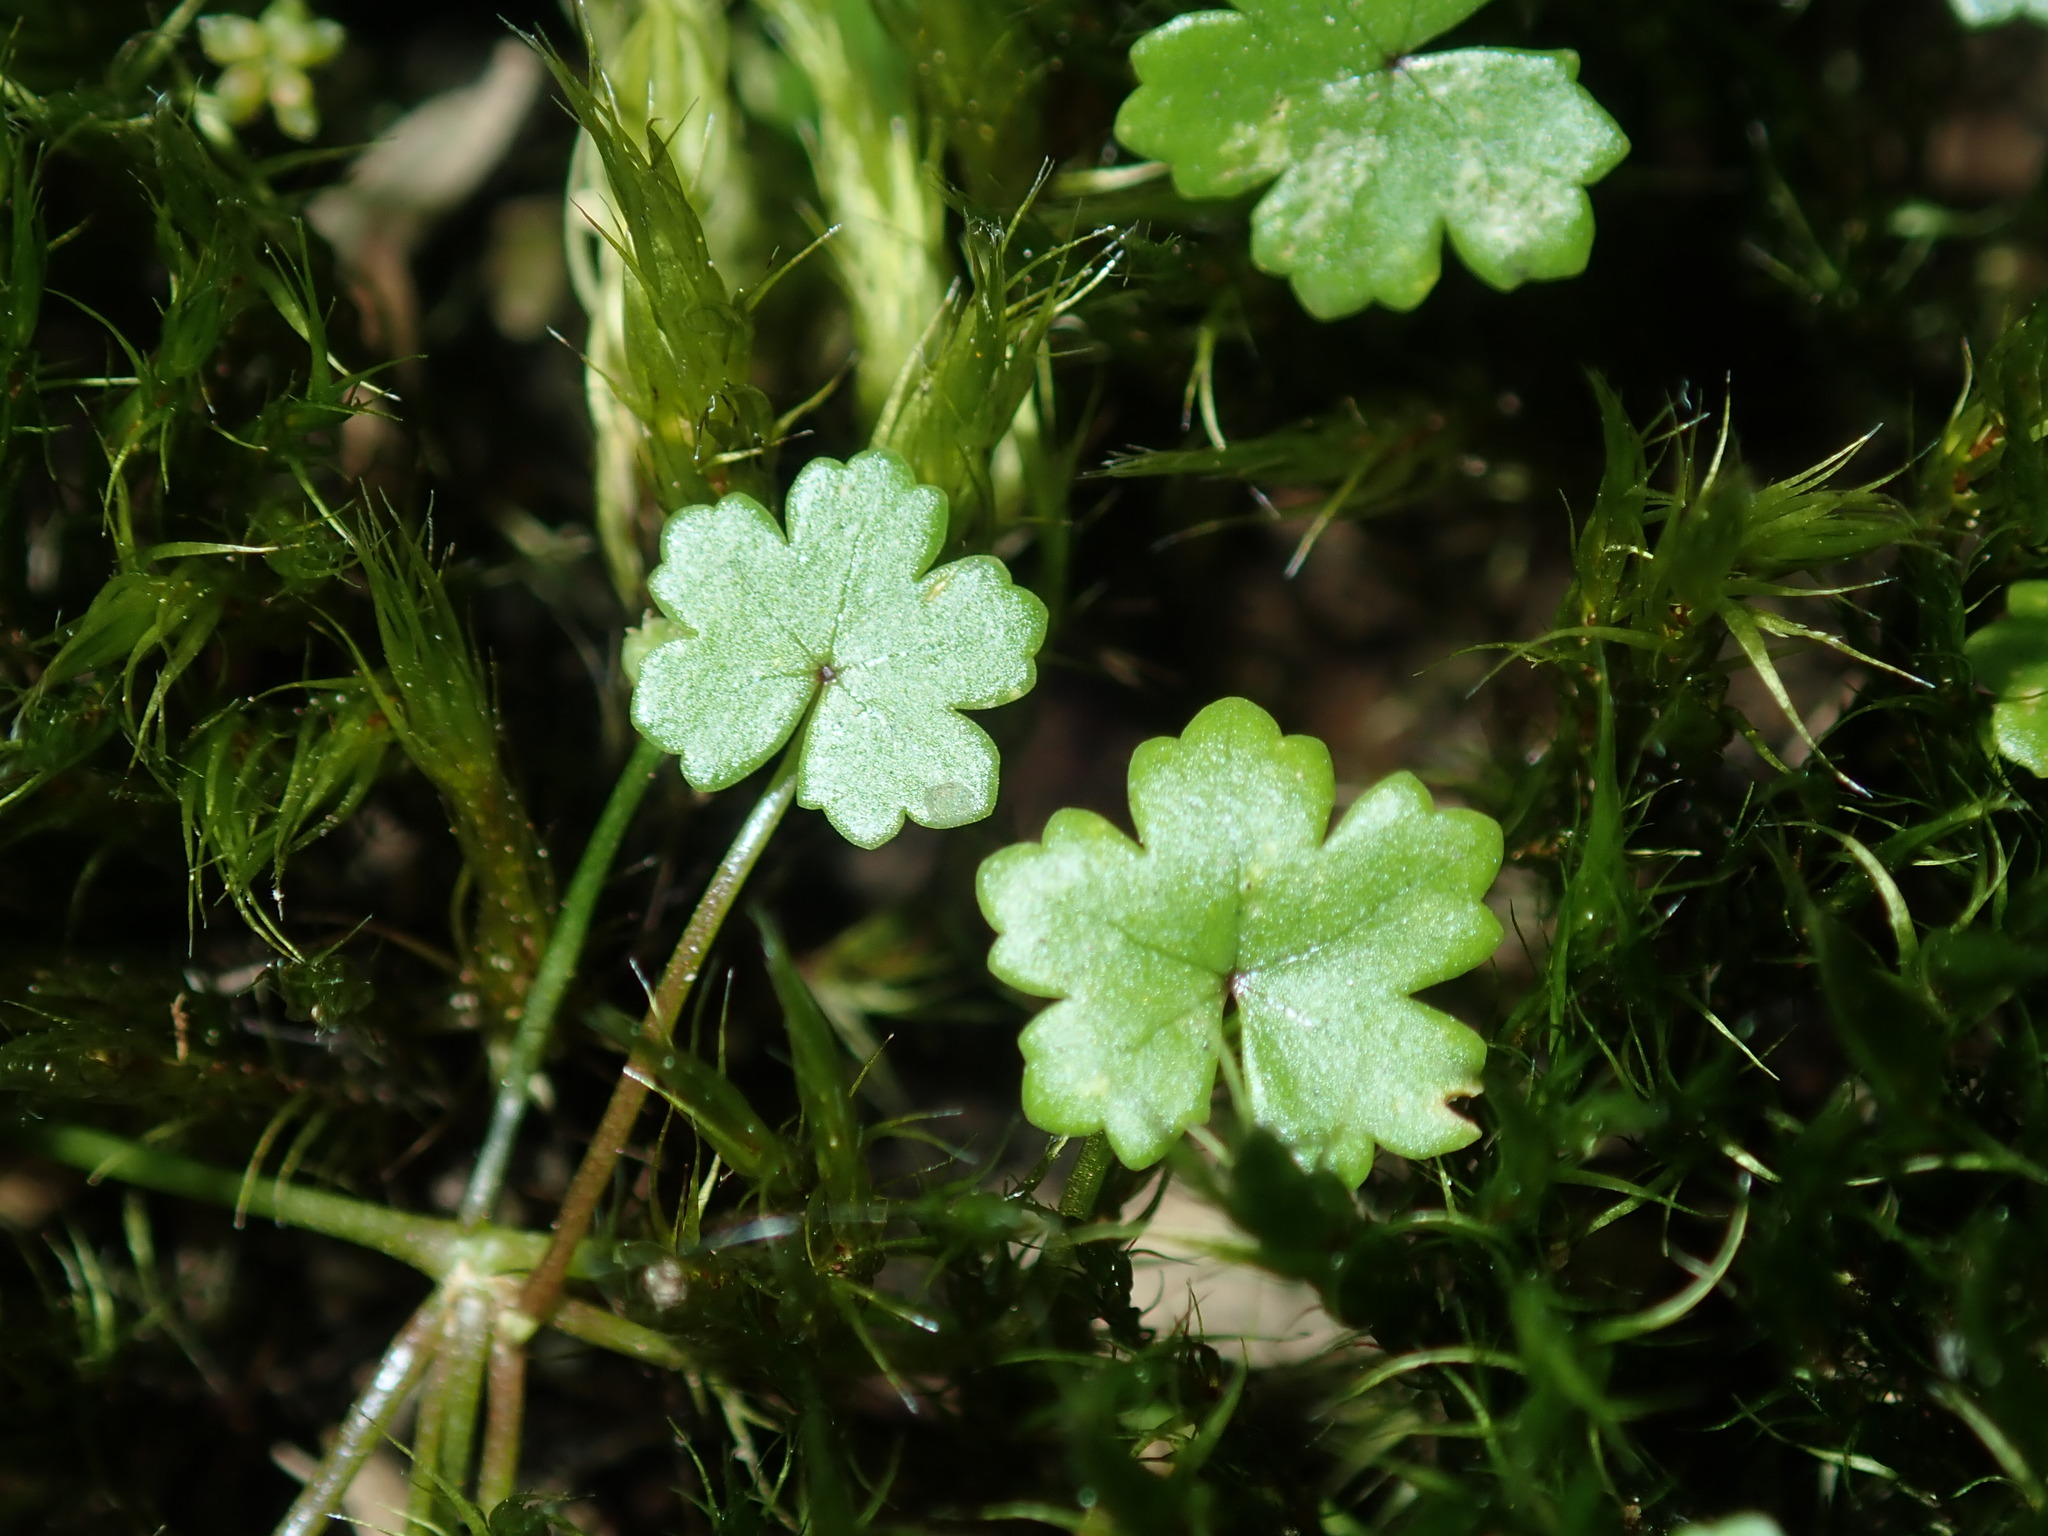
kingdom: Plantae
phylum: Tracheophyta
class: Magnoliopsida
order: Apiales
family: Araliaceae
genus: Hydrocotyle
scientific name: Hydrocotyle sibthorpioides
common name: Lawn marshpennywort
